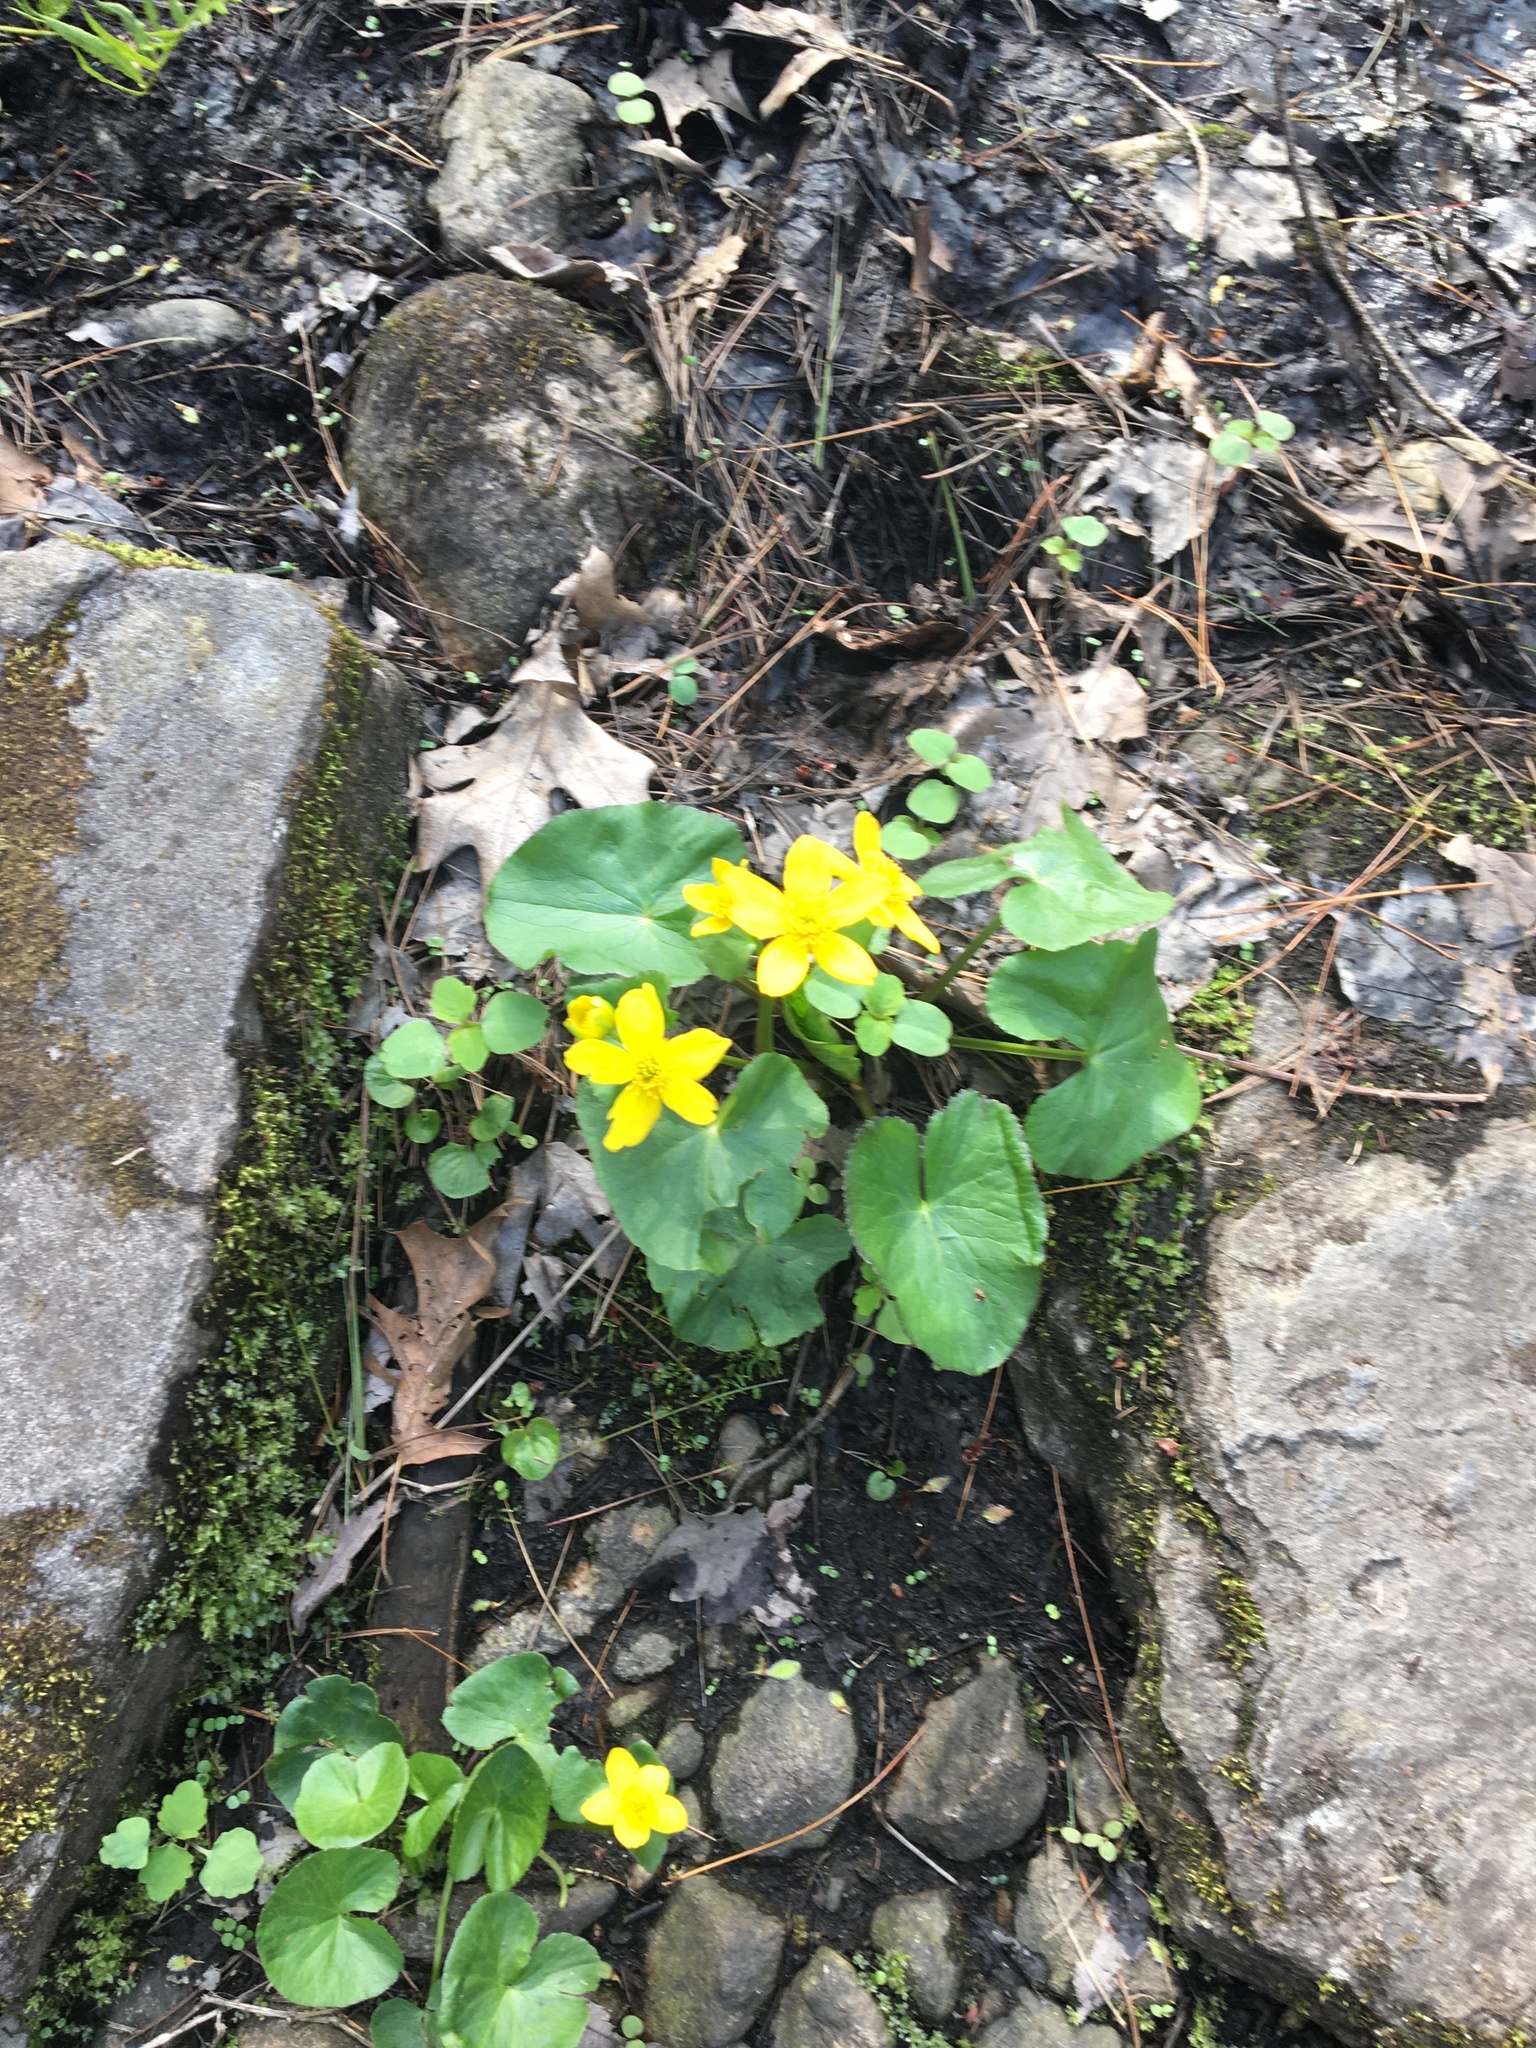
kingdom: Plantae
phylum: Tracheophyta
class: Magnoliopsida
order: Ranunculales
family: Ranunculaceae
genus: Caltha
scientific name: Caltha palustris
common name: Marsh marigold
